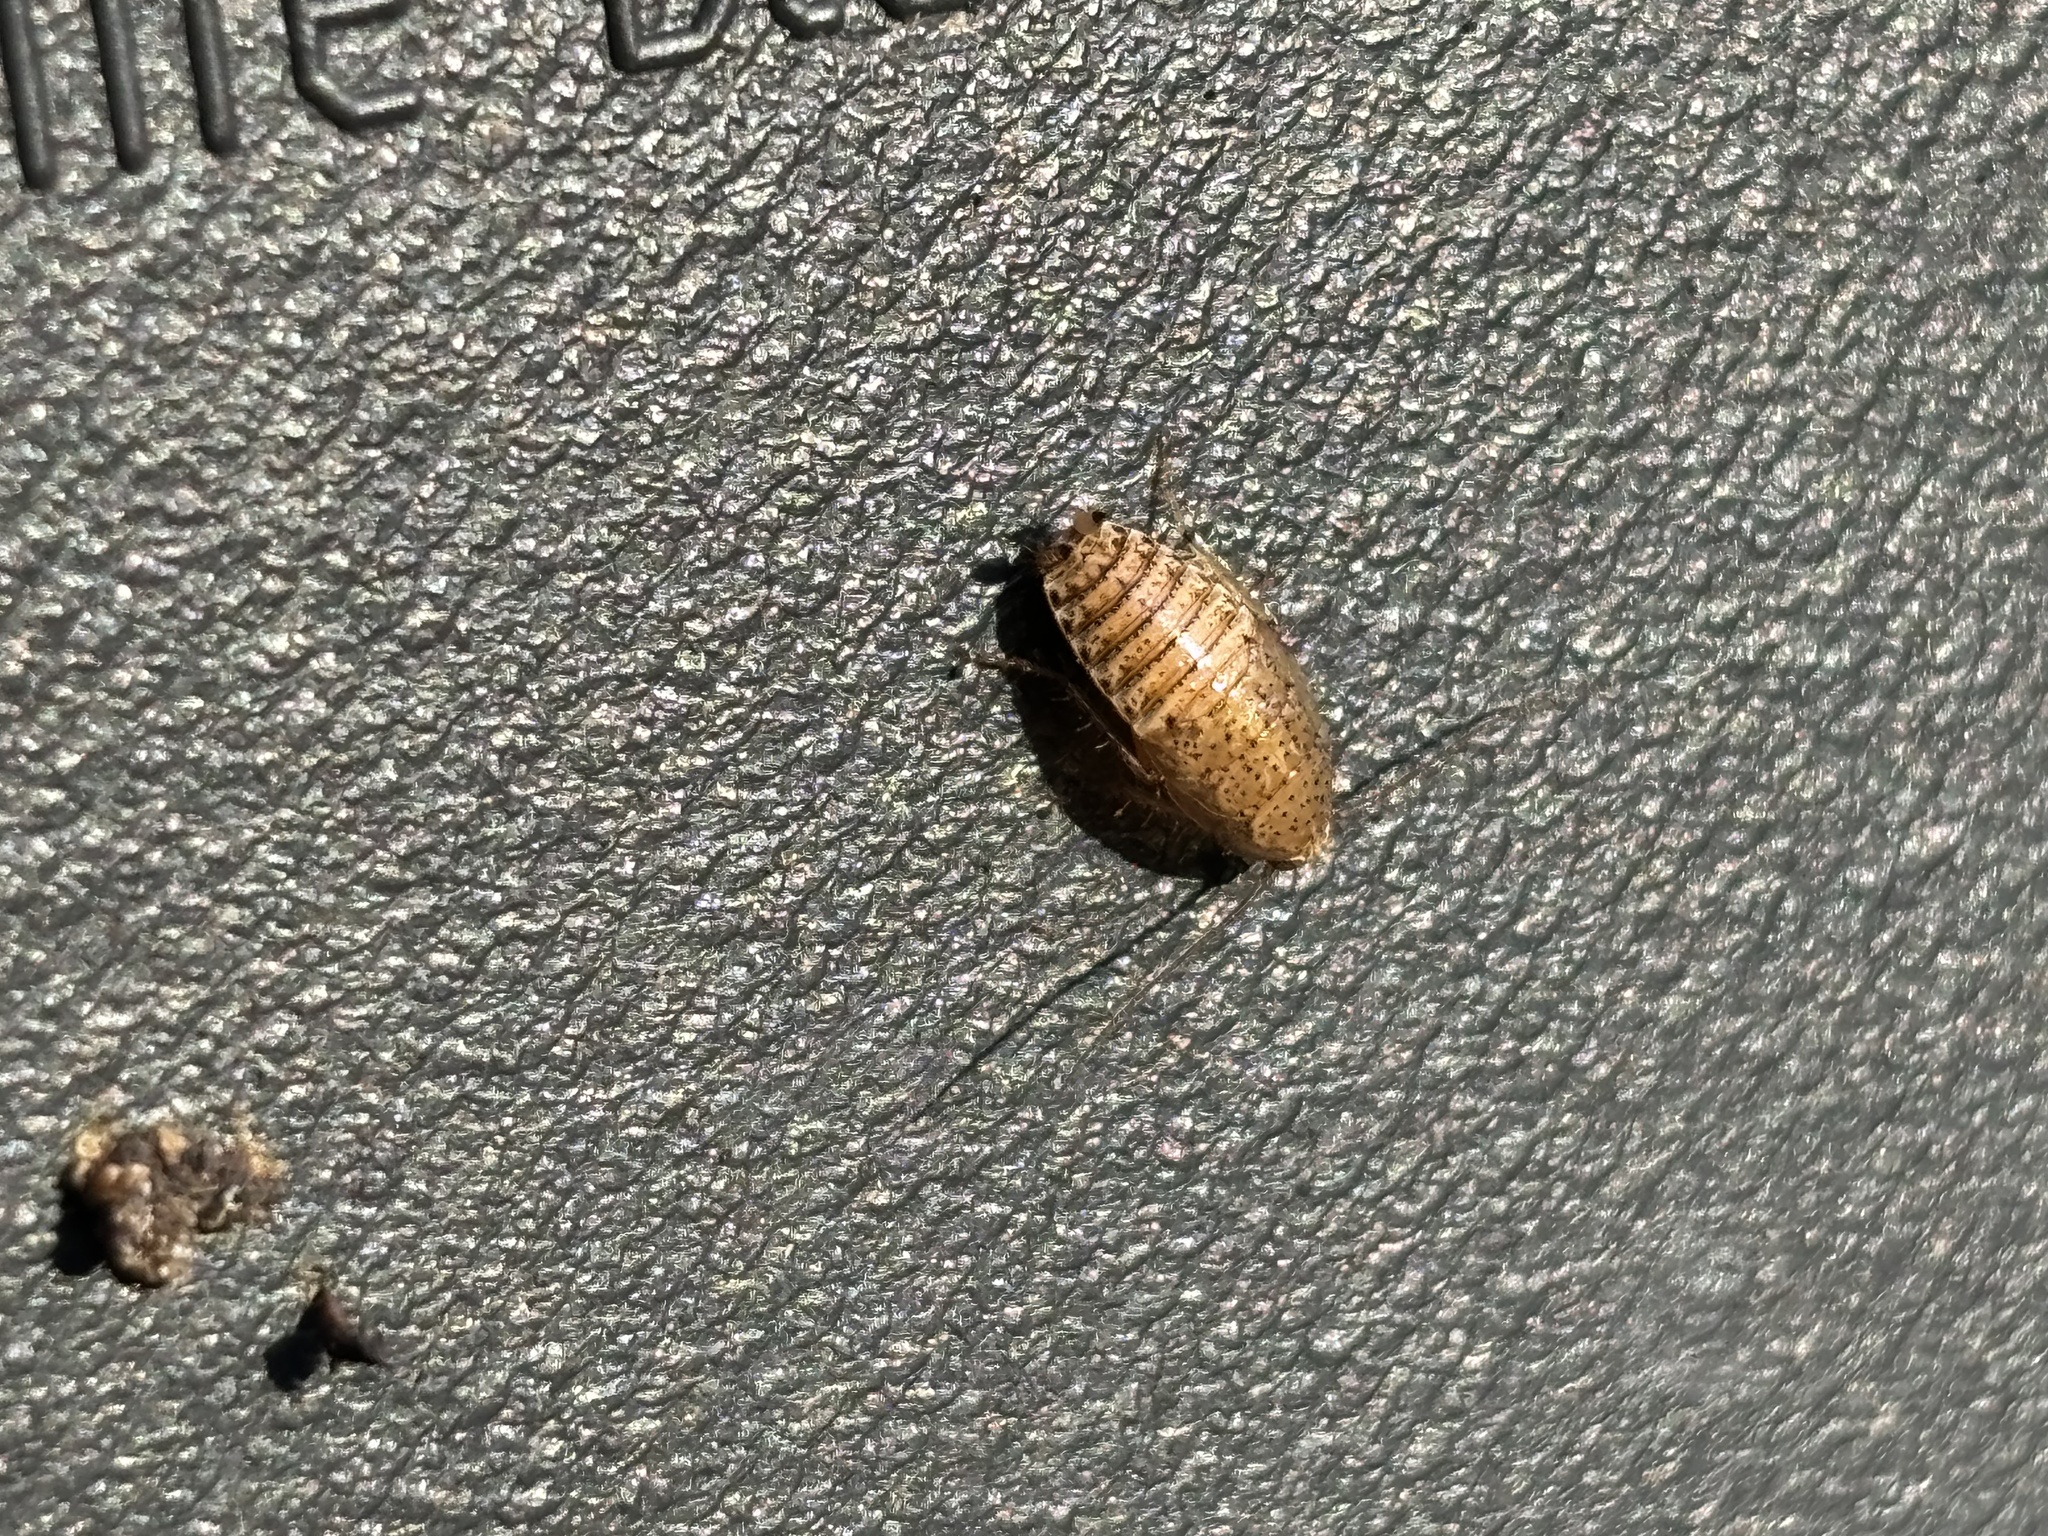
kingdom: Animalia
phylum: Arthropoda
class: Insecta
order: Blattodea
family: Ectobiidae
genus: Ectobius
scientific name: Ectobius pallidus
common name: Tawny cockroach
